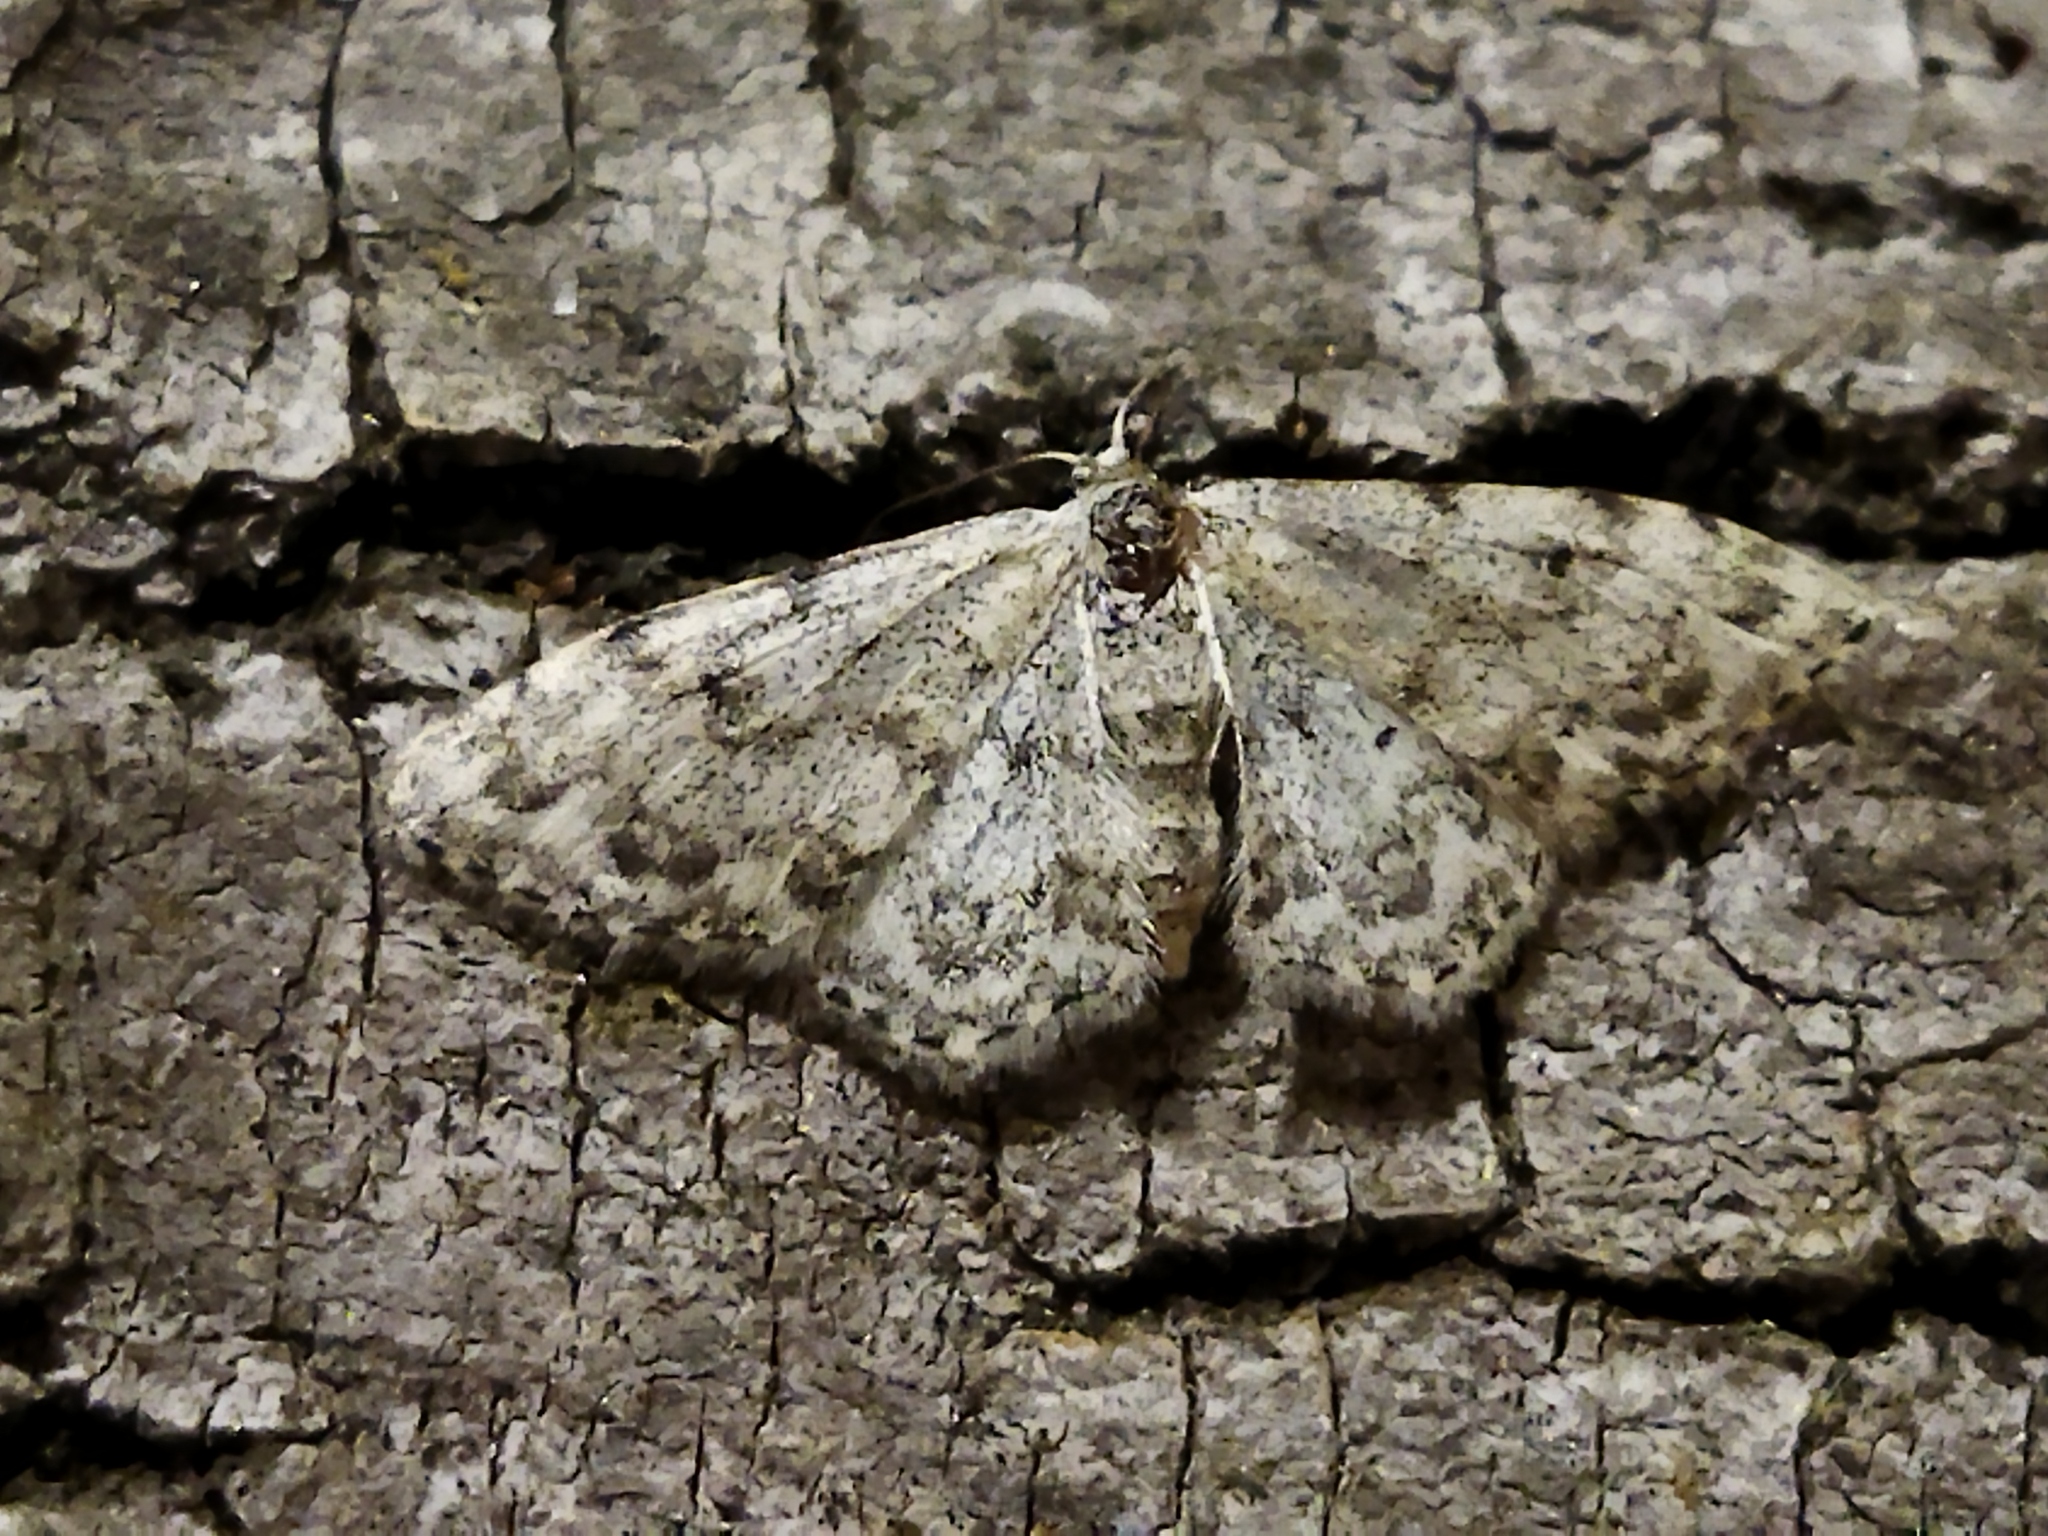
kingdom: Animalia
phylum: Arthropoda
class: Insecta
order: Lepidoptera
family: Geometridae
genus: Idaea
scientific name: Idaea camparia
